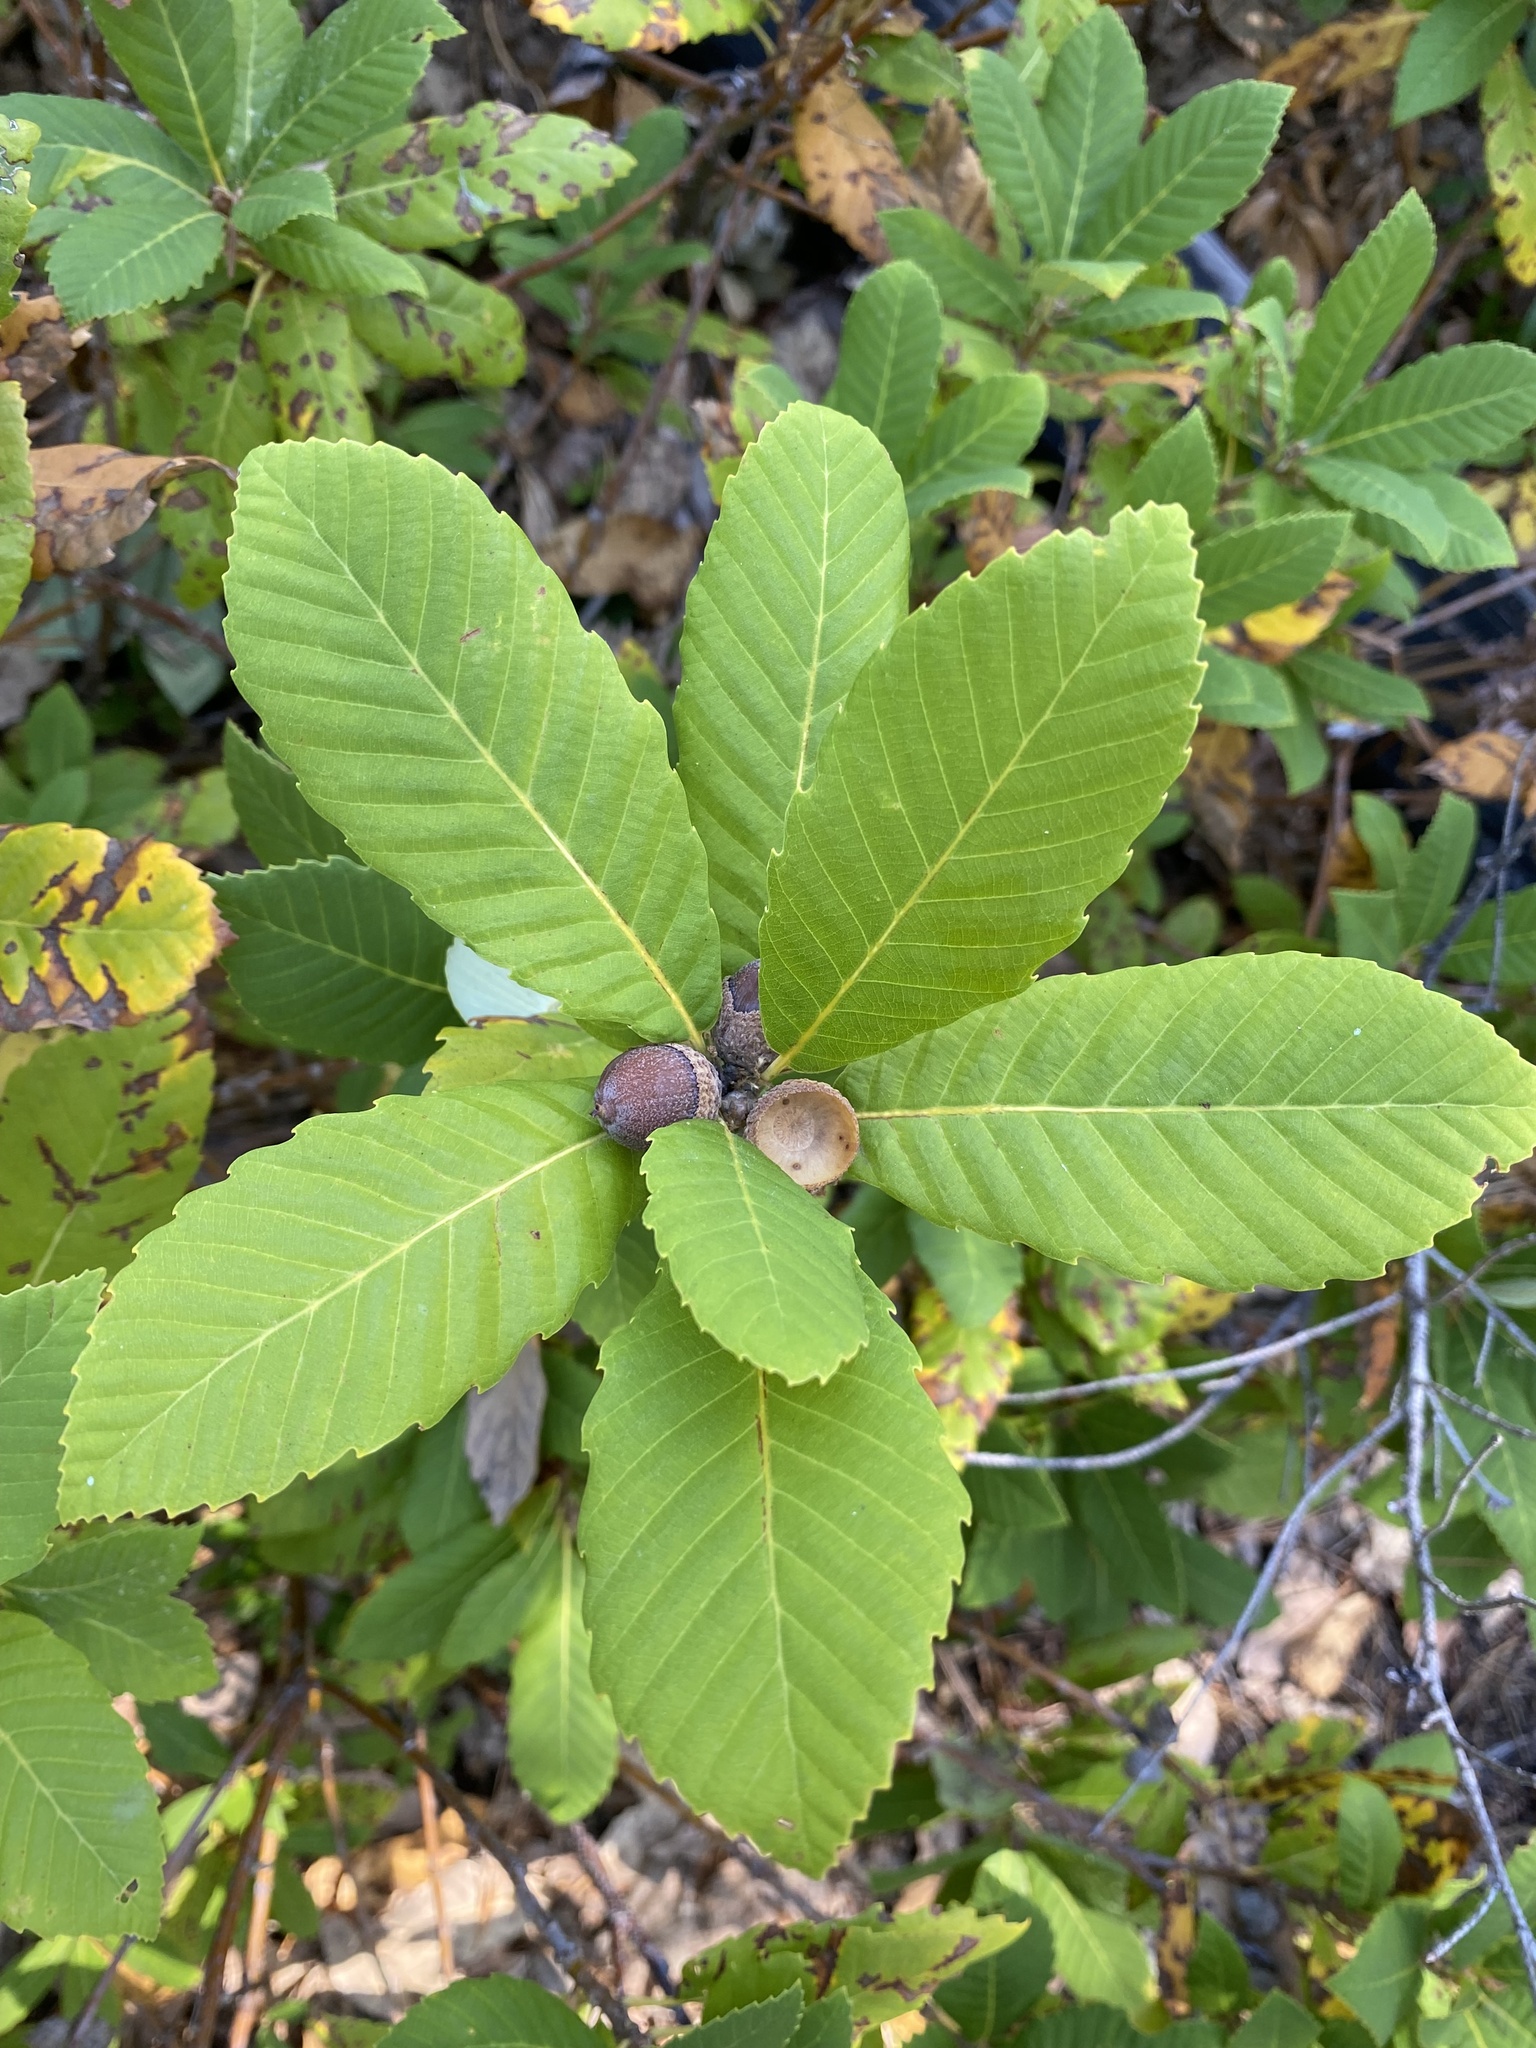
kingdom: Plantae
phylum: Tracheophyta
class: Magnoliopsida
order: Fagales
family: Fagaceae
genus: Quercus
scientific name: Quercus sadleriana
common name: Deer oak
